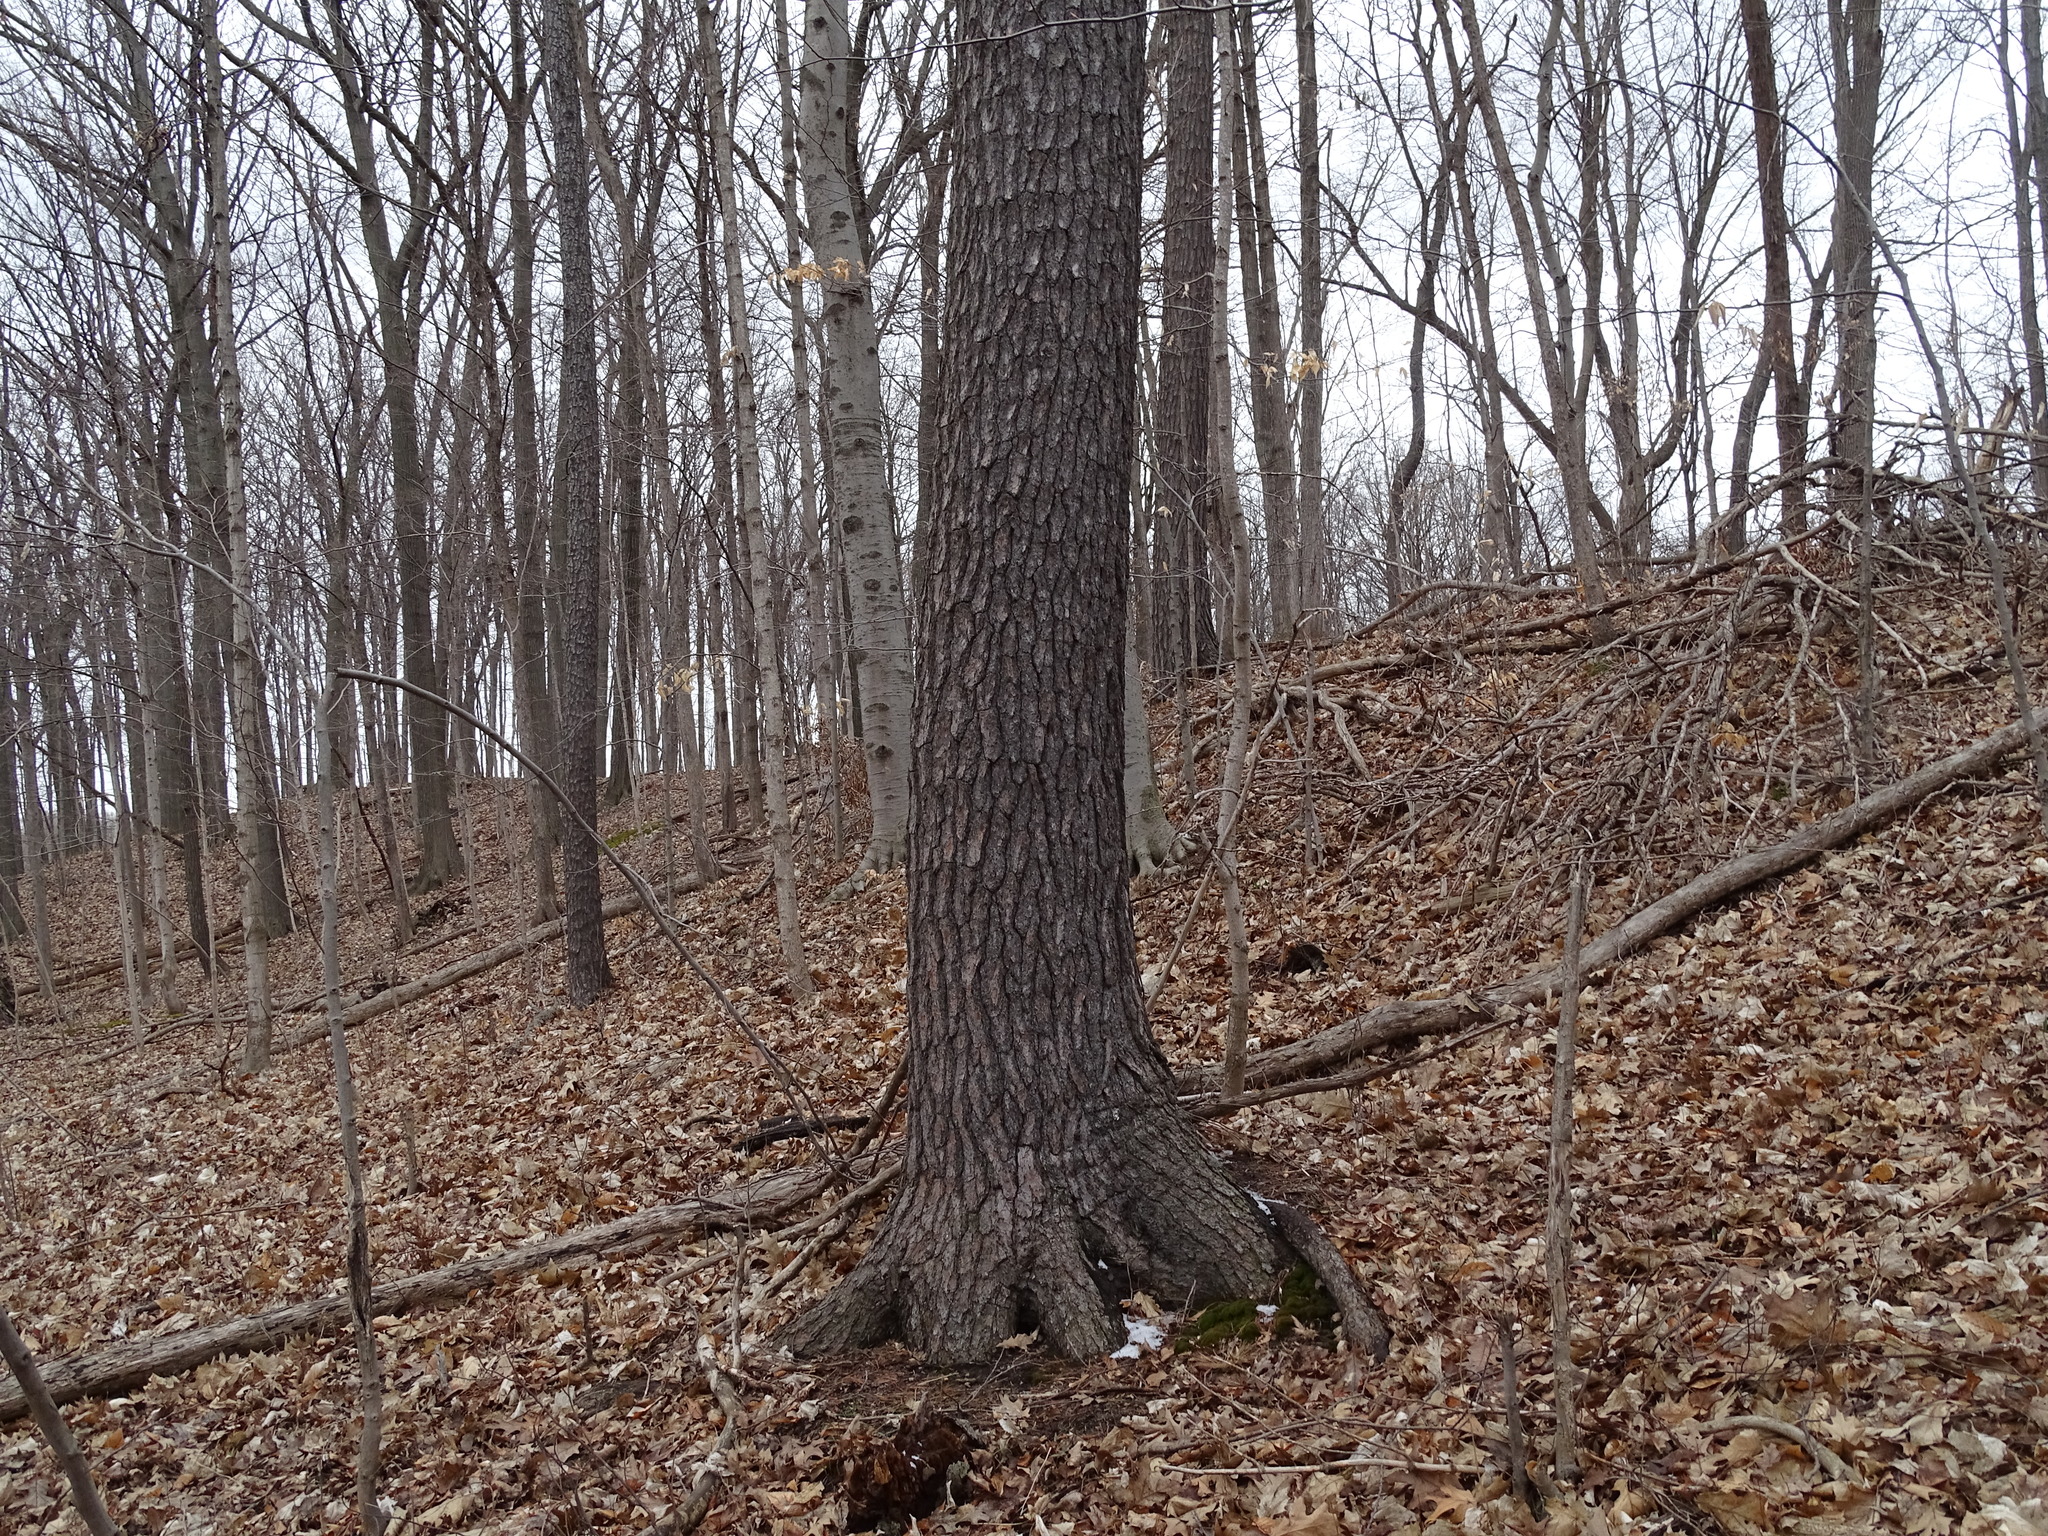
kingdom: Plantae
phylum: Tracheophyta
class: Pinopsida
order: Pinales
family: Pinaceae
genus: Pinus
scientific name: Pinus strobus
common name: Weymouth pine
